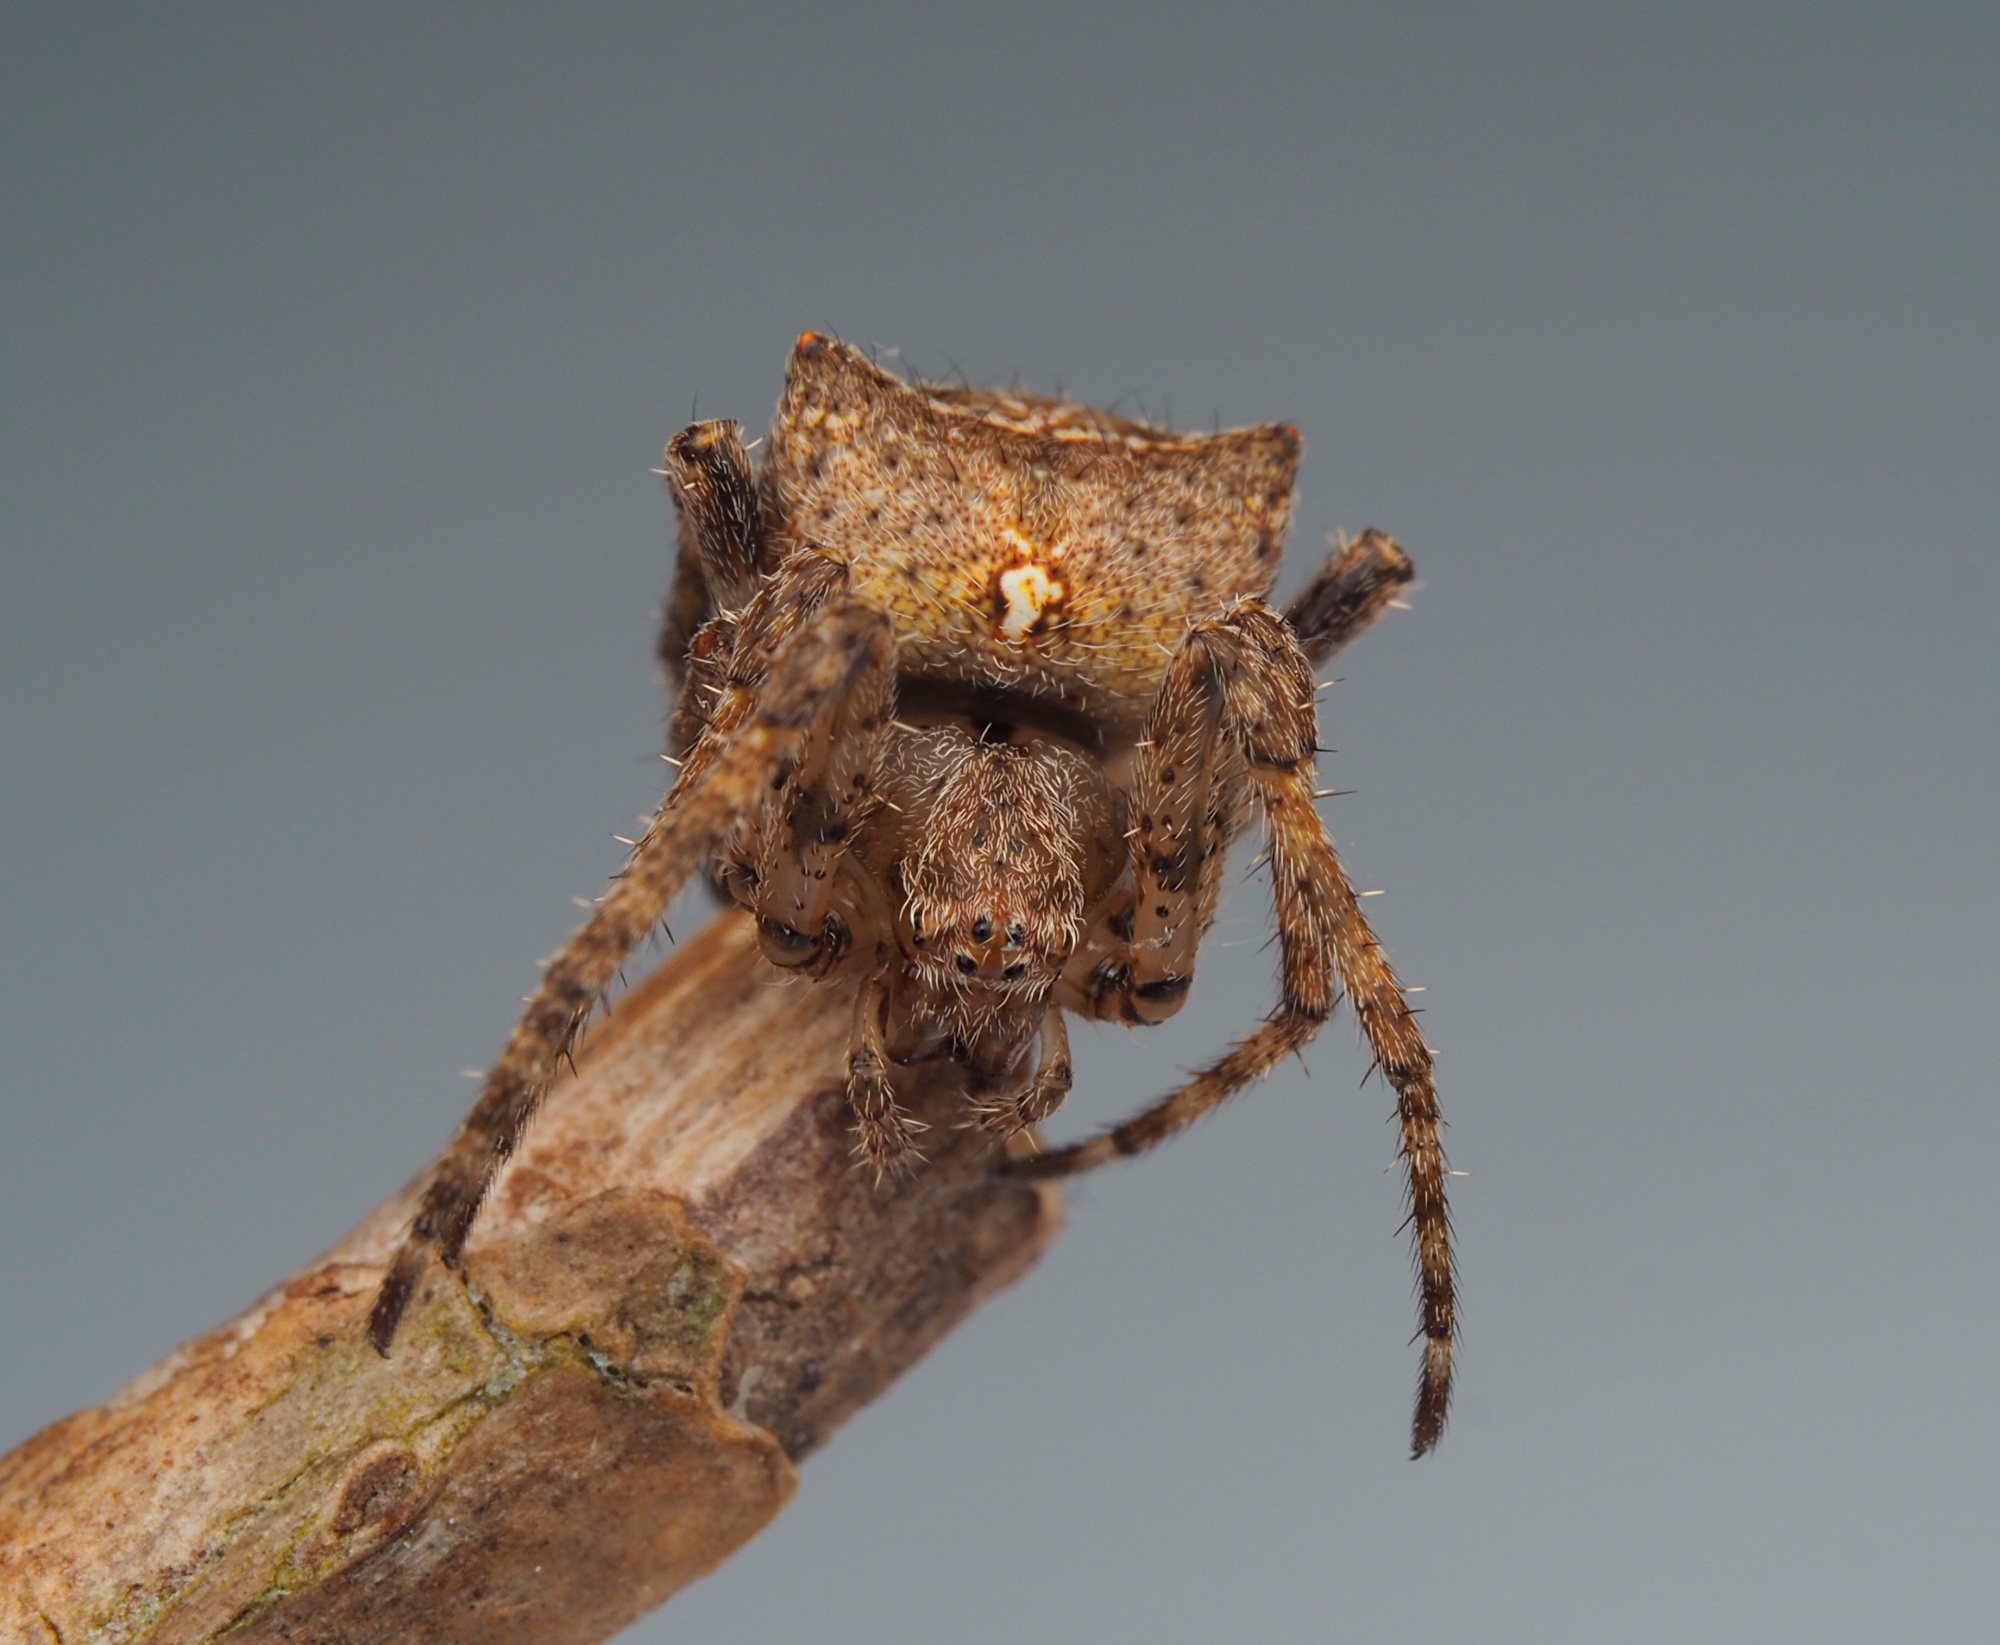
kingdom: Animalia
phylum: Arthropoda
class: Arachnida
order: Araneae
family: Araneidae
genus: Novakiella
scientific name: Novakiella trituberculosa
